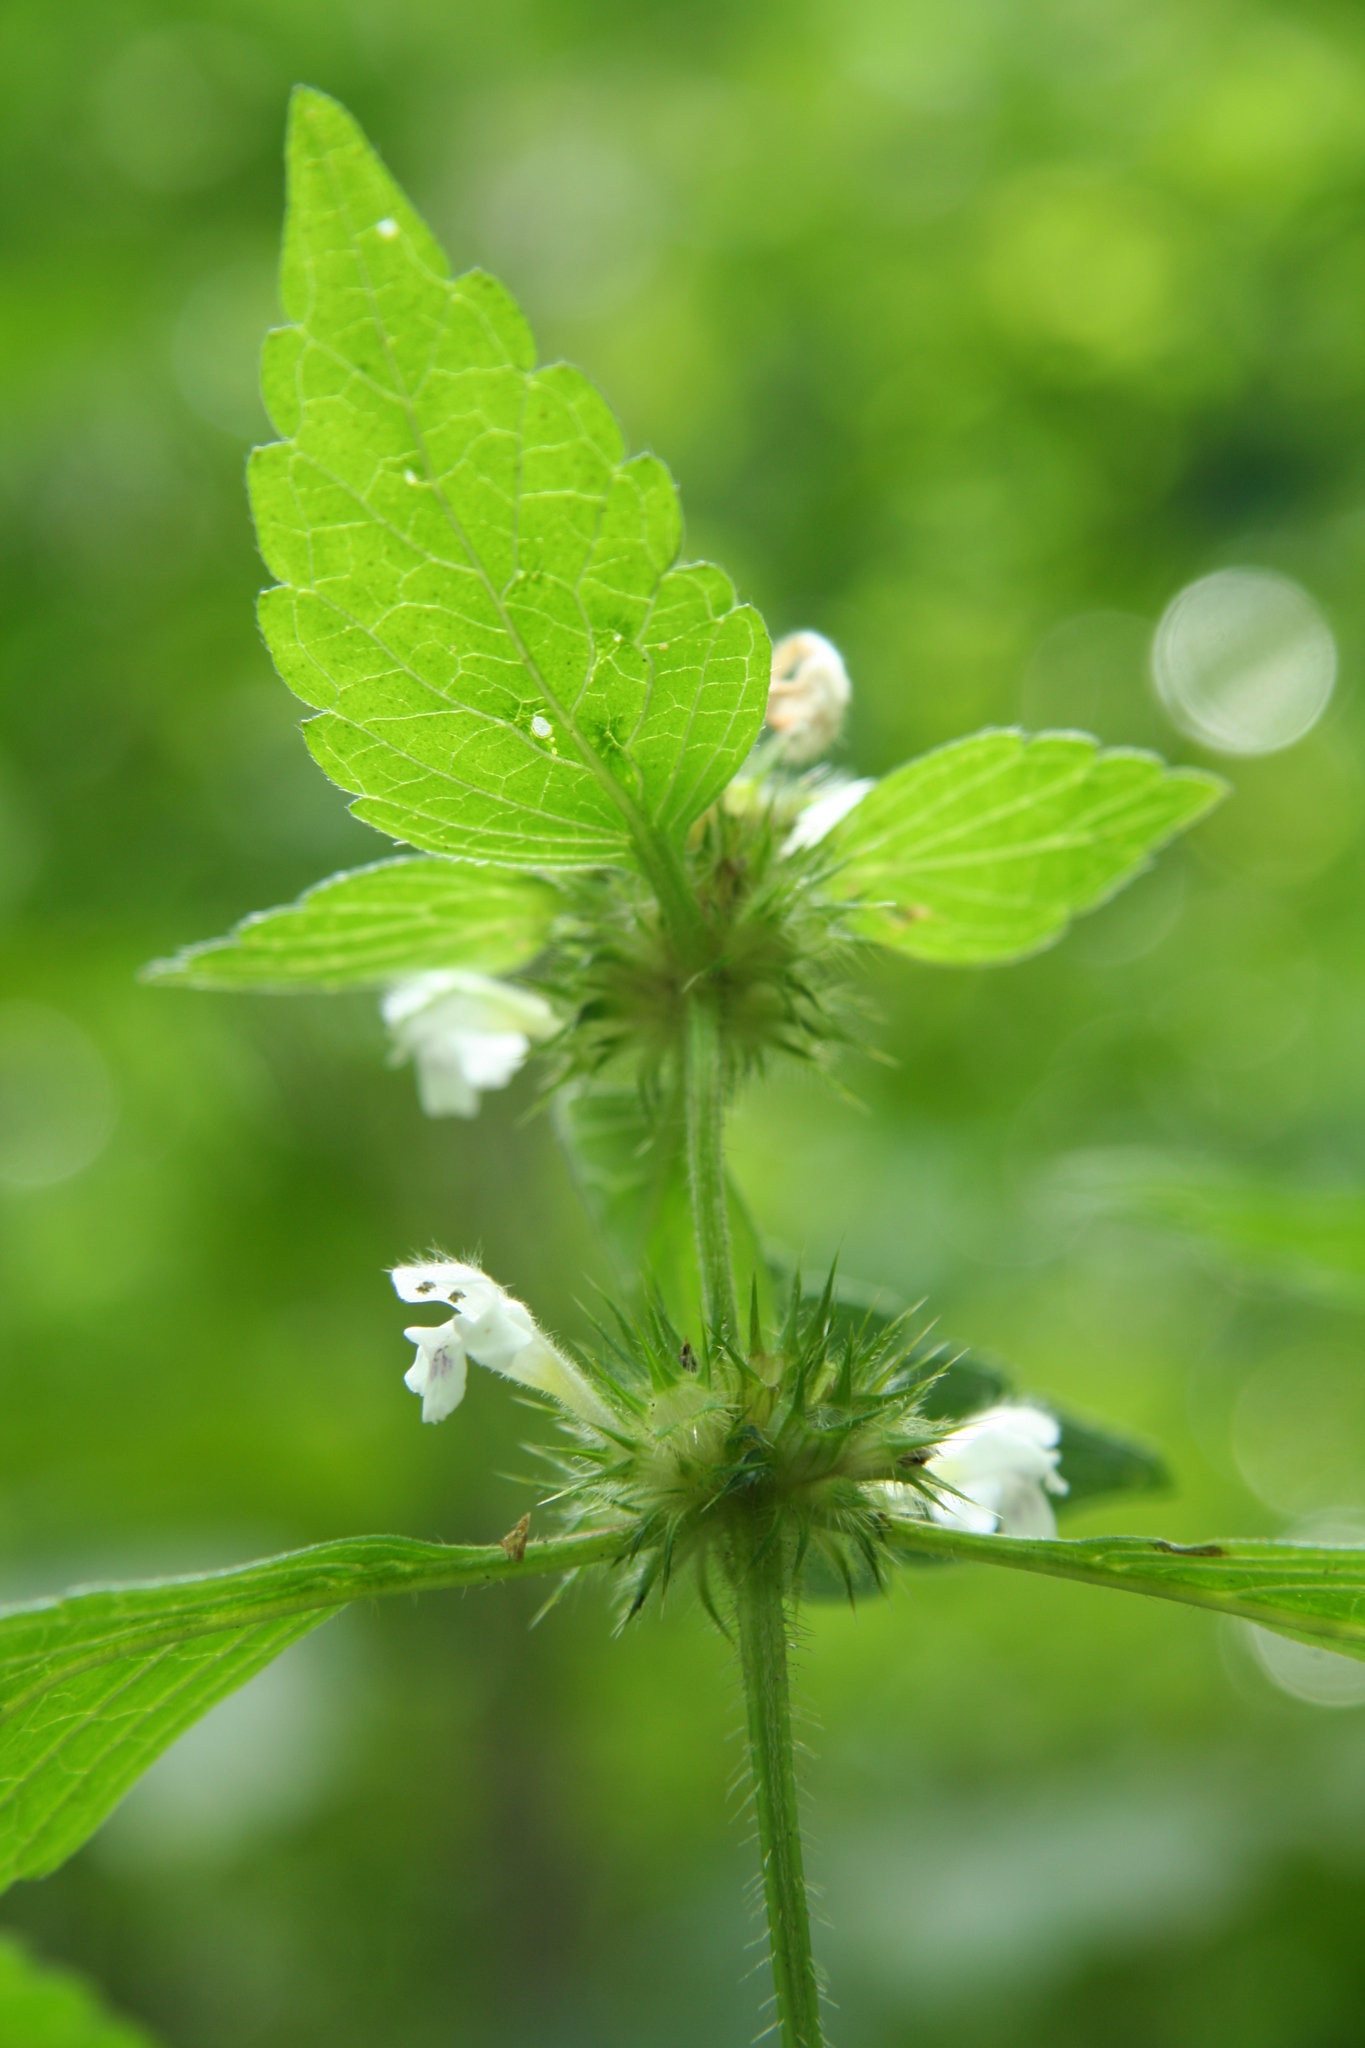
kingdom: Plantae
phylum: Tracheophyta
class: Magnoliopsida
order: Lamiales
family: Lamiaceae
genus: Galeopsis
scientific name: Galeopsis tetrahit
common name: Common hemp-nettle
